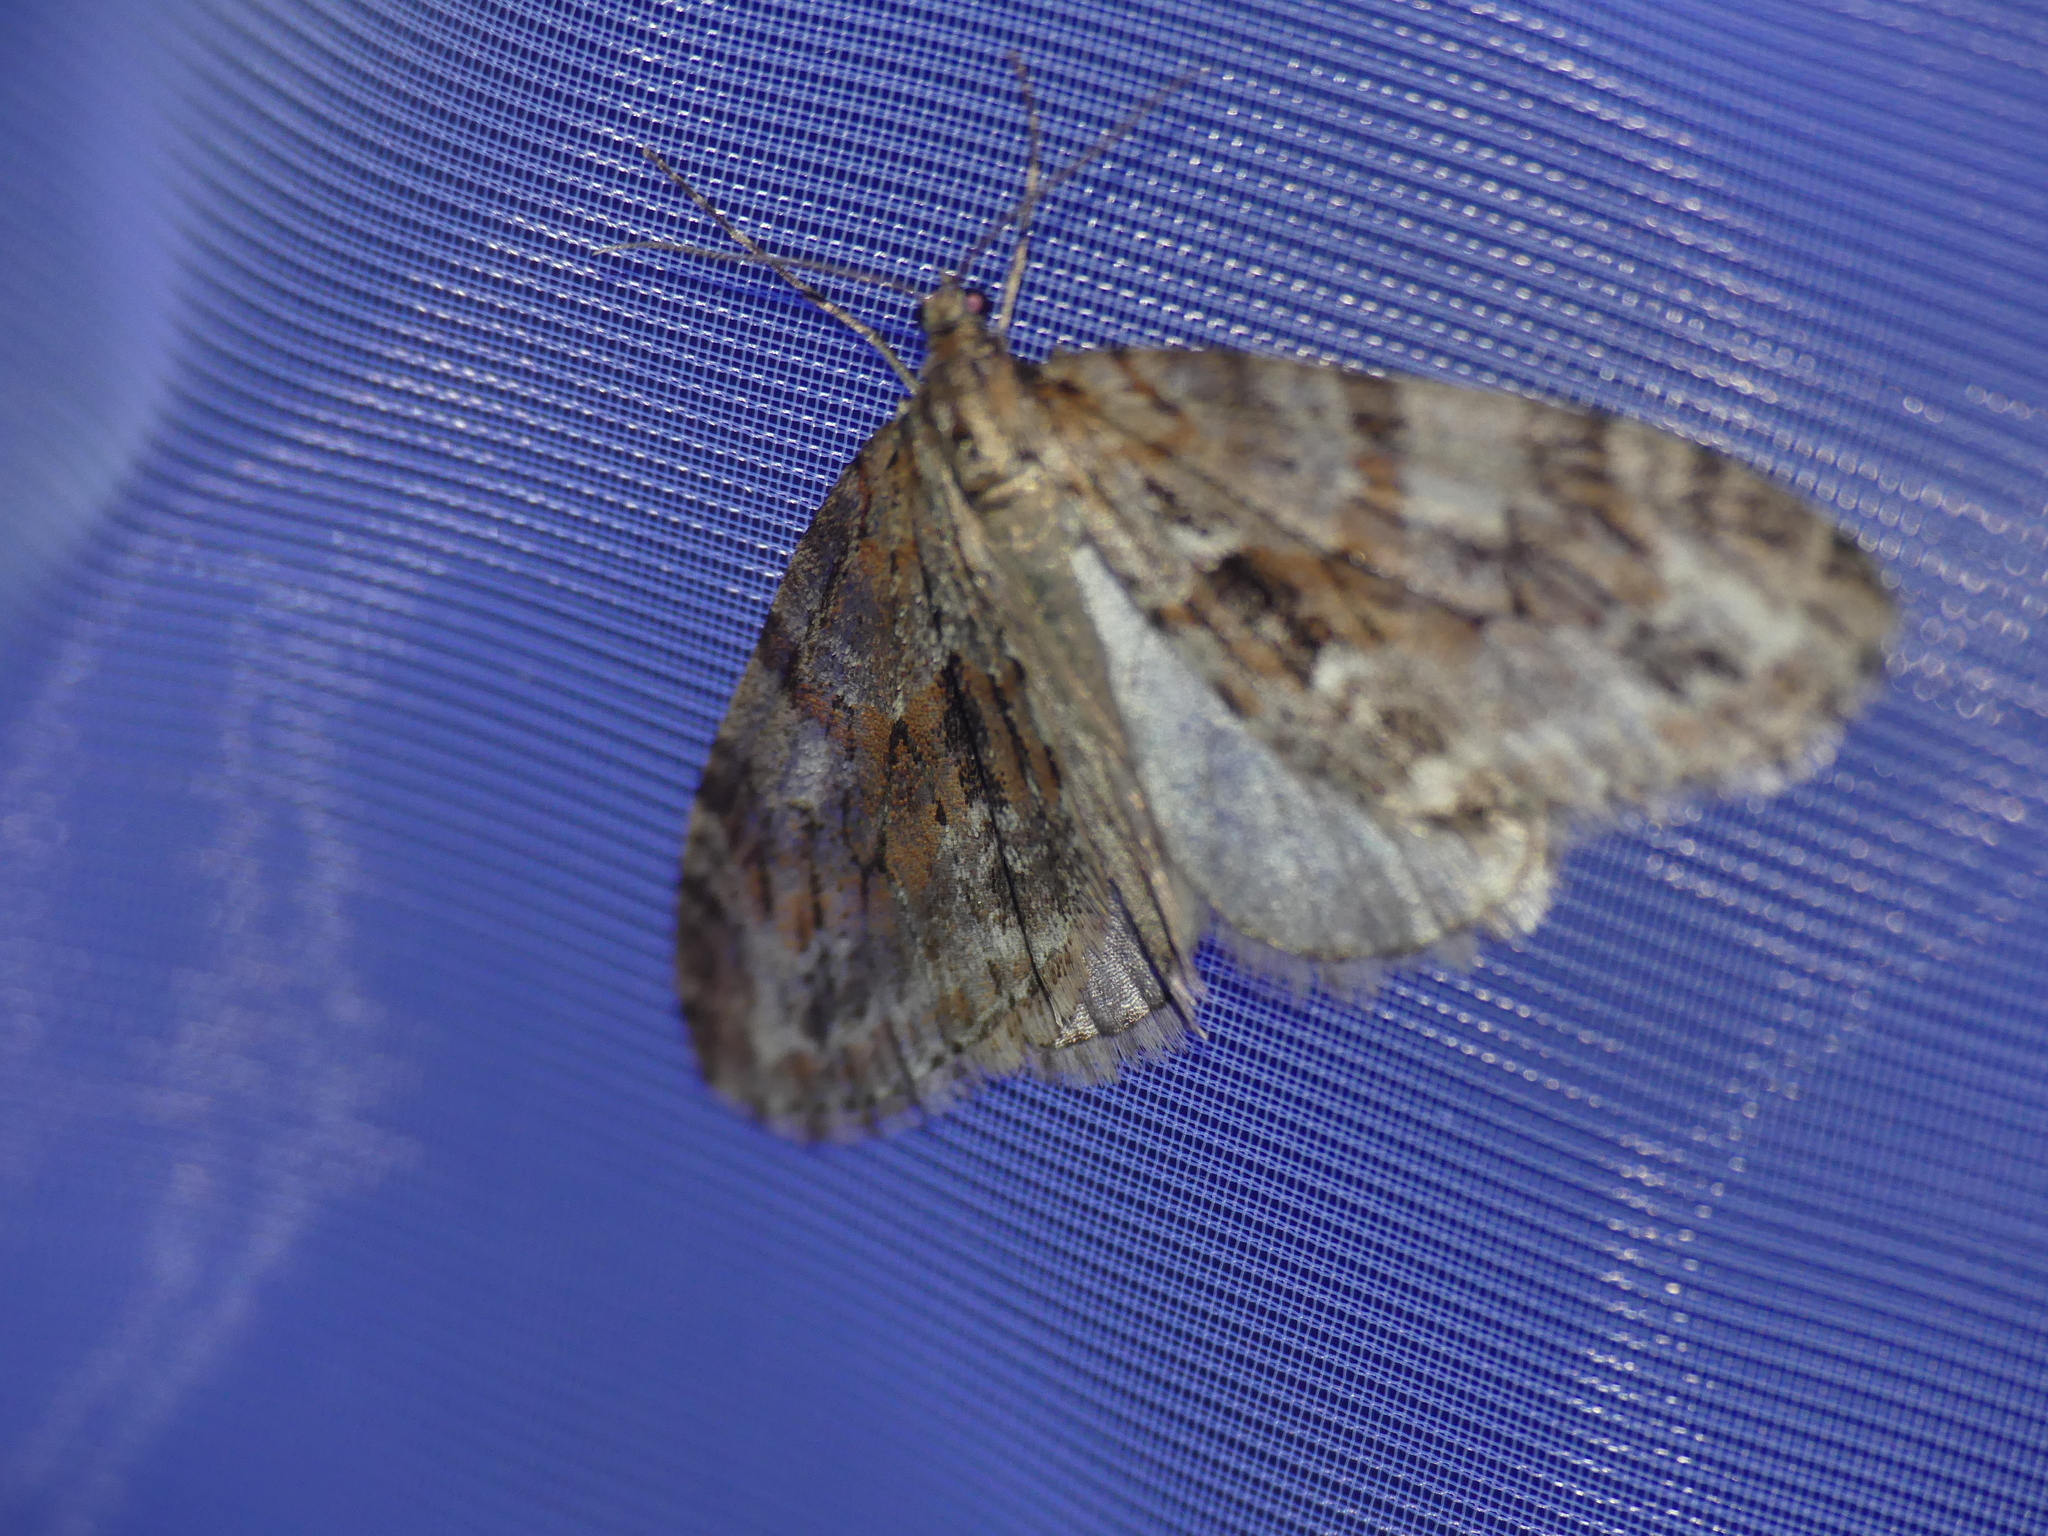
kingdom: Animalia
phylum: Arthropoda
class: Insecta
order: Lepidoptera
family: Geometridae
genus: Trichopteryx
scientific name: Trichopteryx polycommata
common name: Barred tooth-striped
